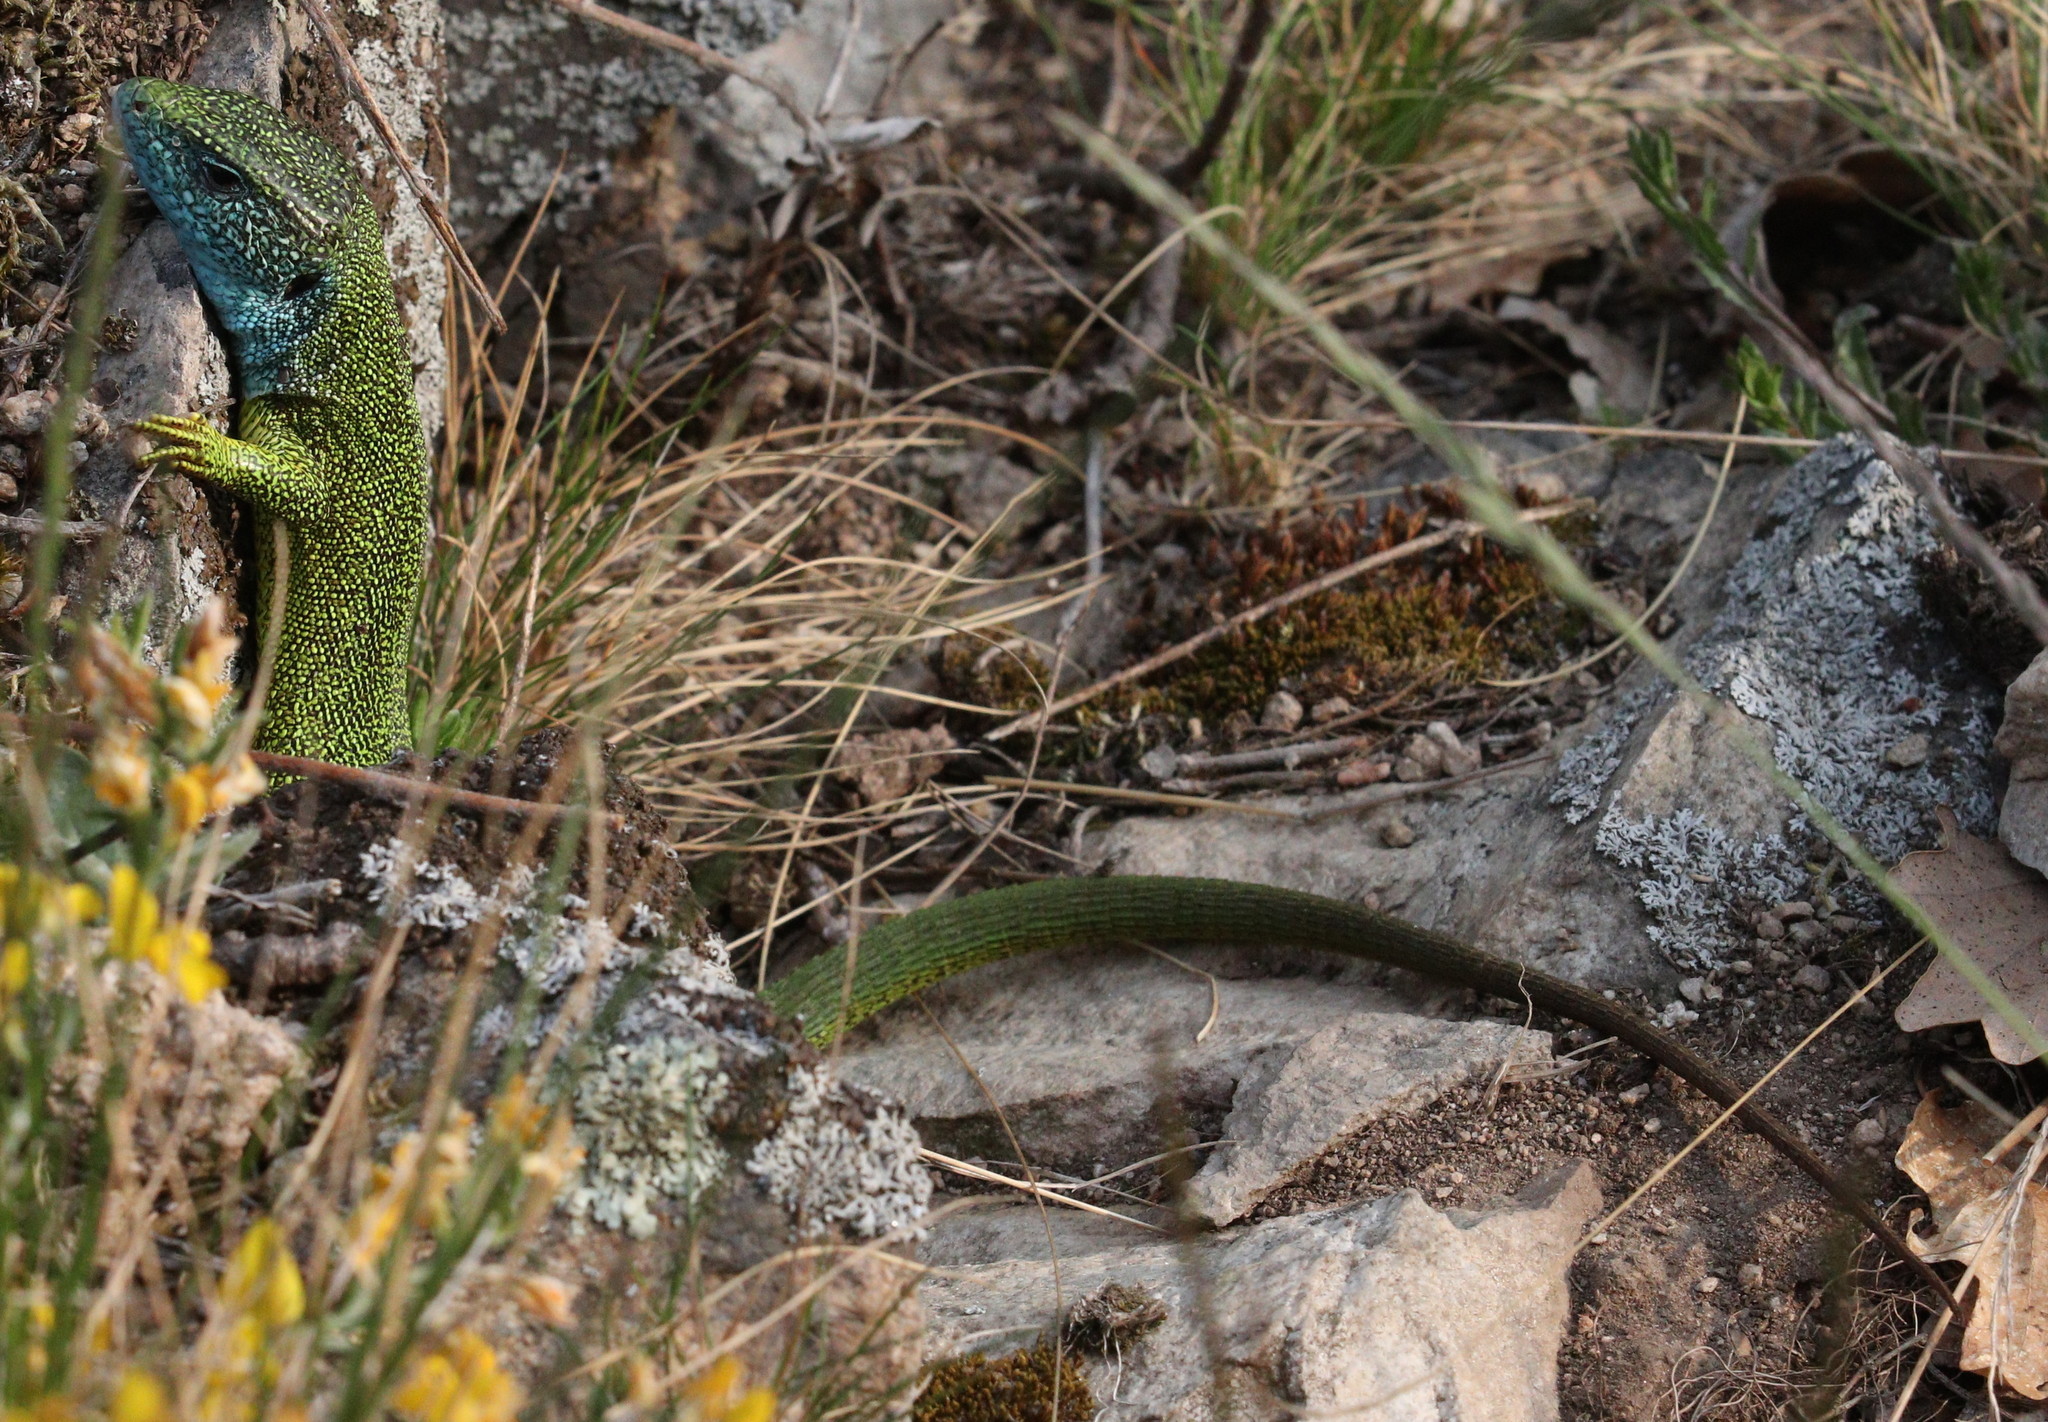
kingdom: Animalia
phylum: Chordata
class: Squamata
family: Lacertidae
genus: Lacerta
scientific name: Lacerta viridis
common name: European green lizard
